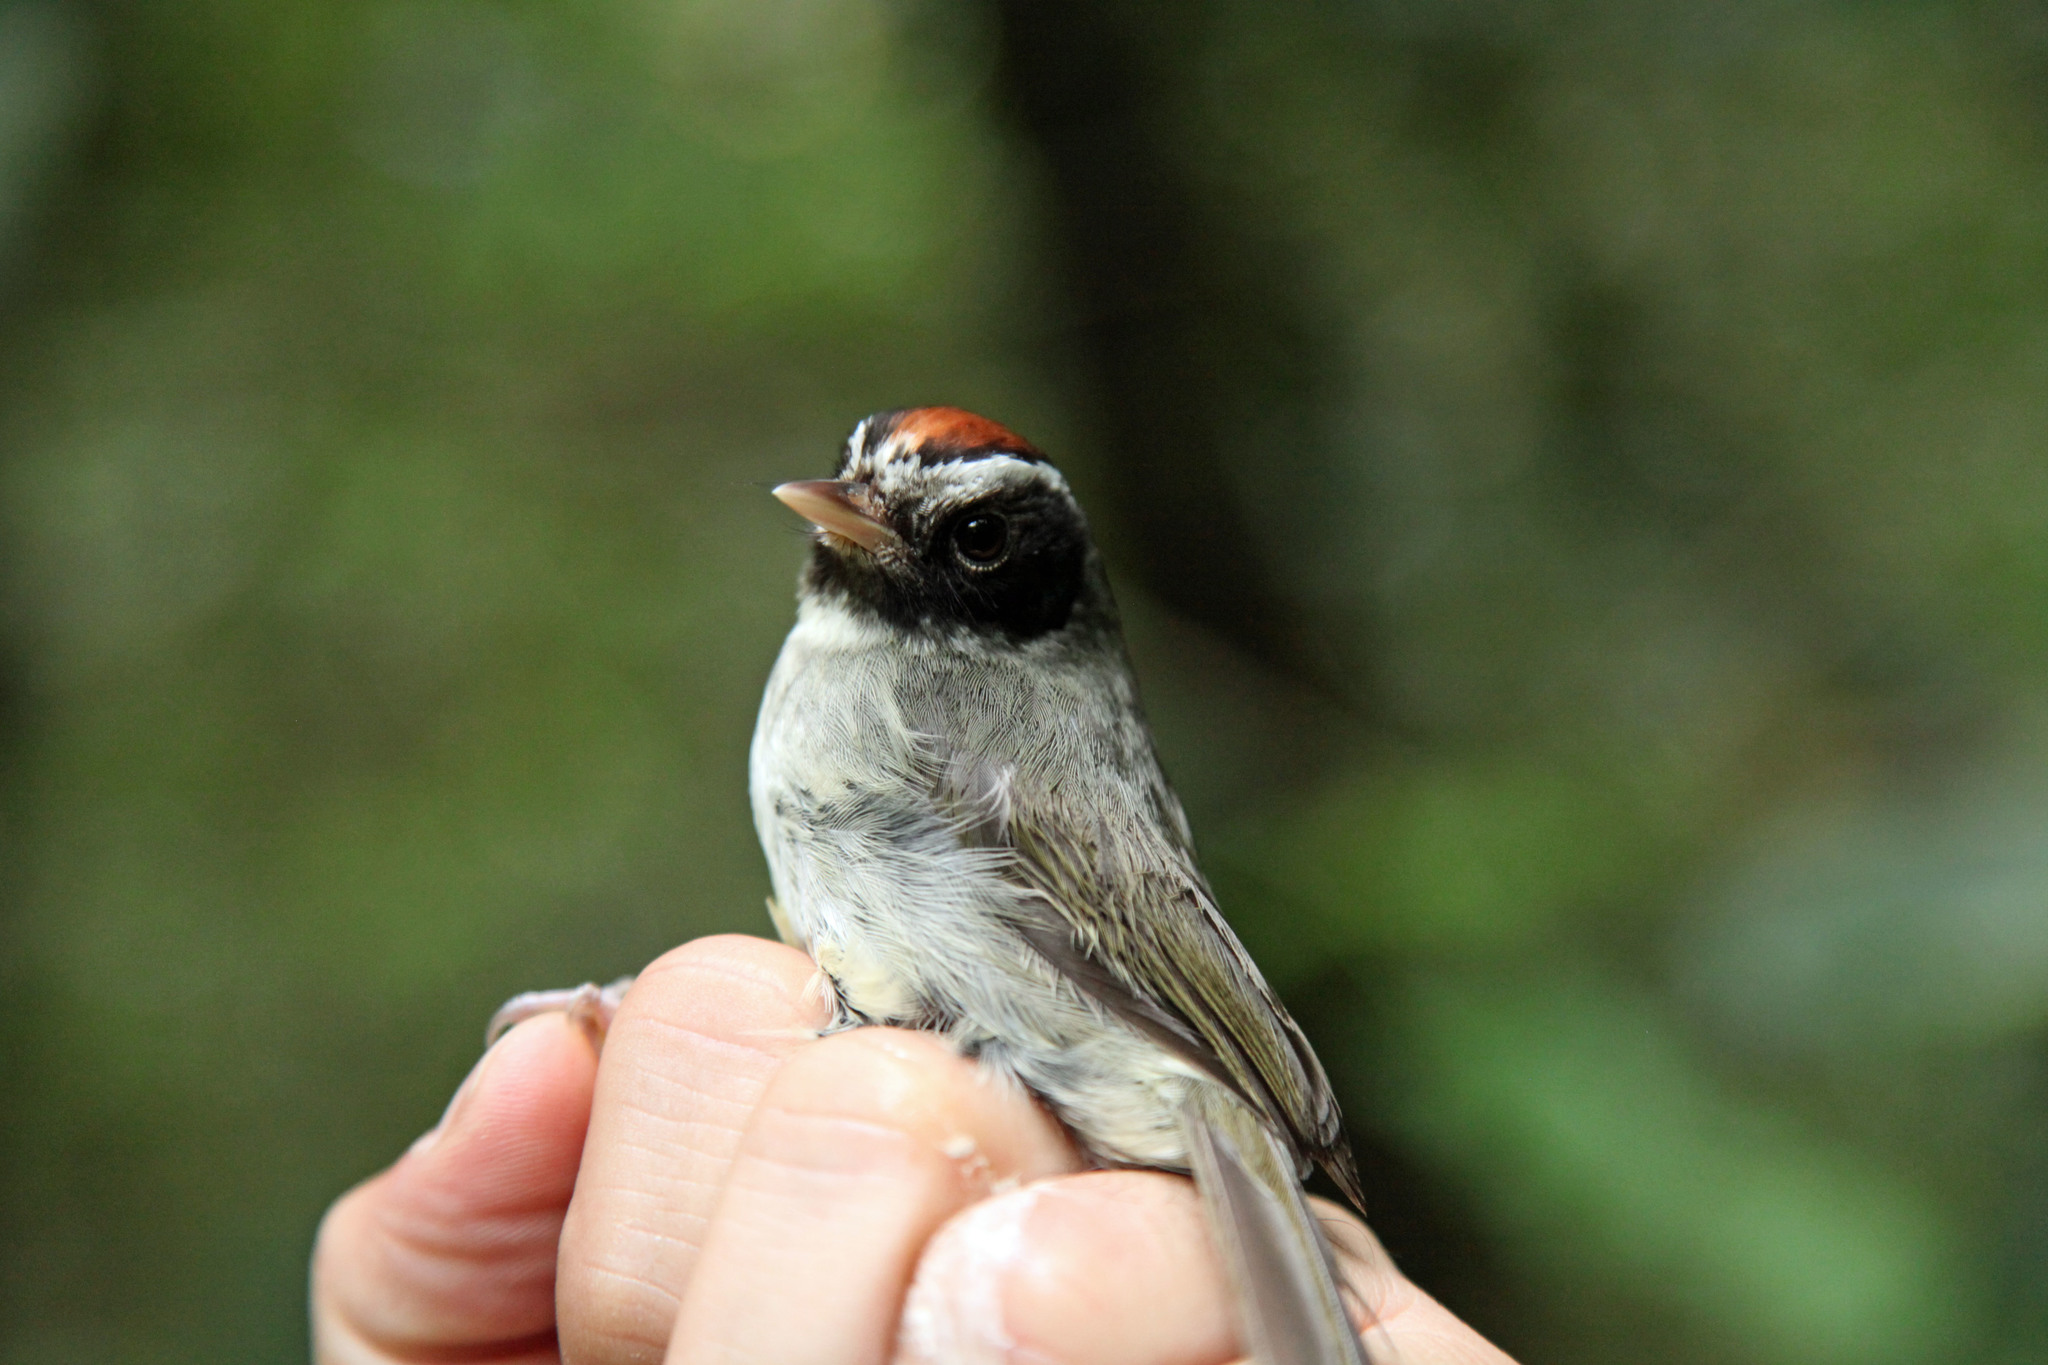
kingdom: Animalia
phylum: Chordata
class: Aves
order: Passeriformes
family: Parulidae
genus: Basileuterus
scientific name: Basileuterus melanogenys
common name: Black-cheeked warbler
